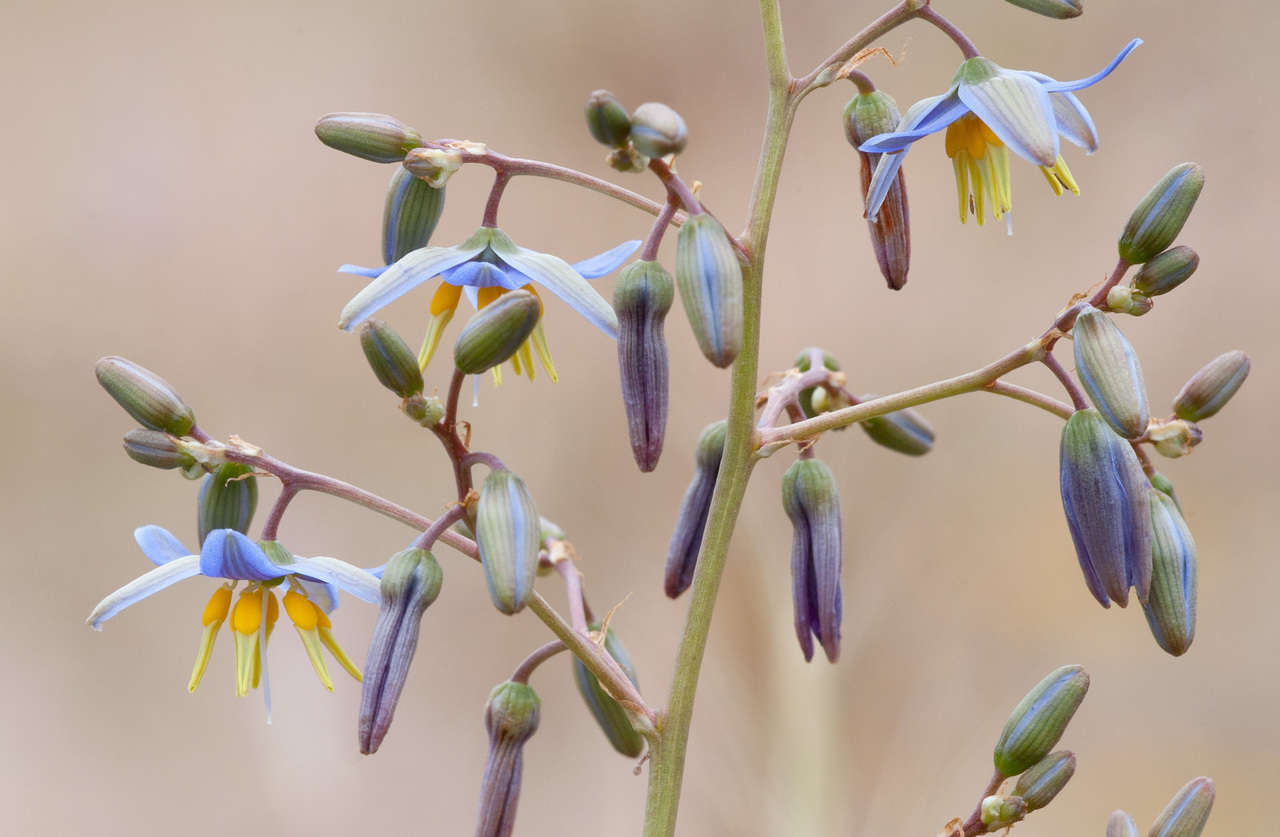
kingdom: Plantae
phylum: Tracheophyta
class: Liliopsida
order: Asparagales
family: Asphodelaceae
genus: Dianella
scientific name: Dianella longifolia
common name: Blue flax-lily
